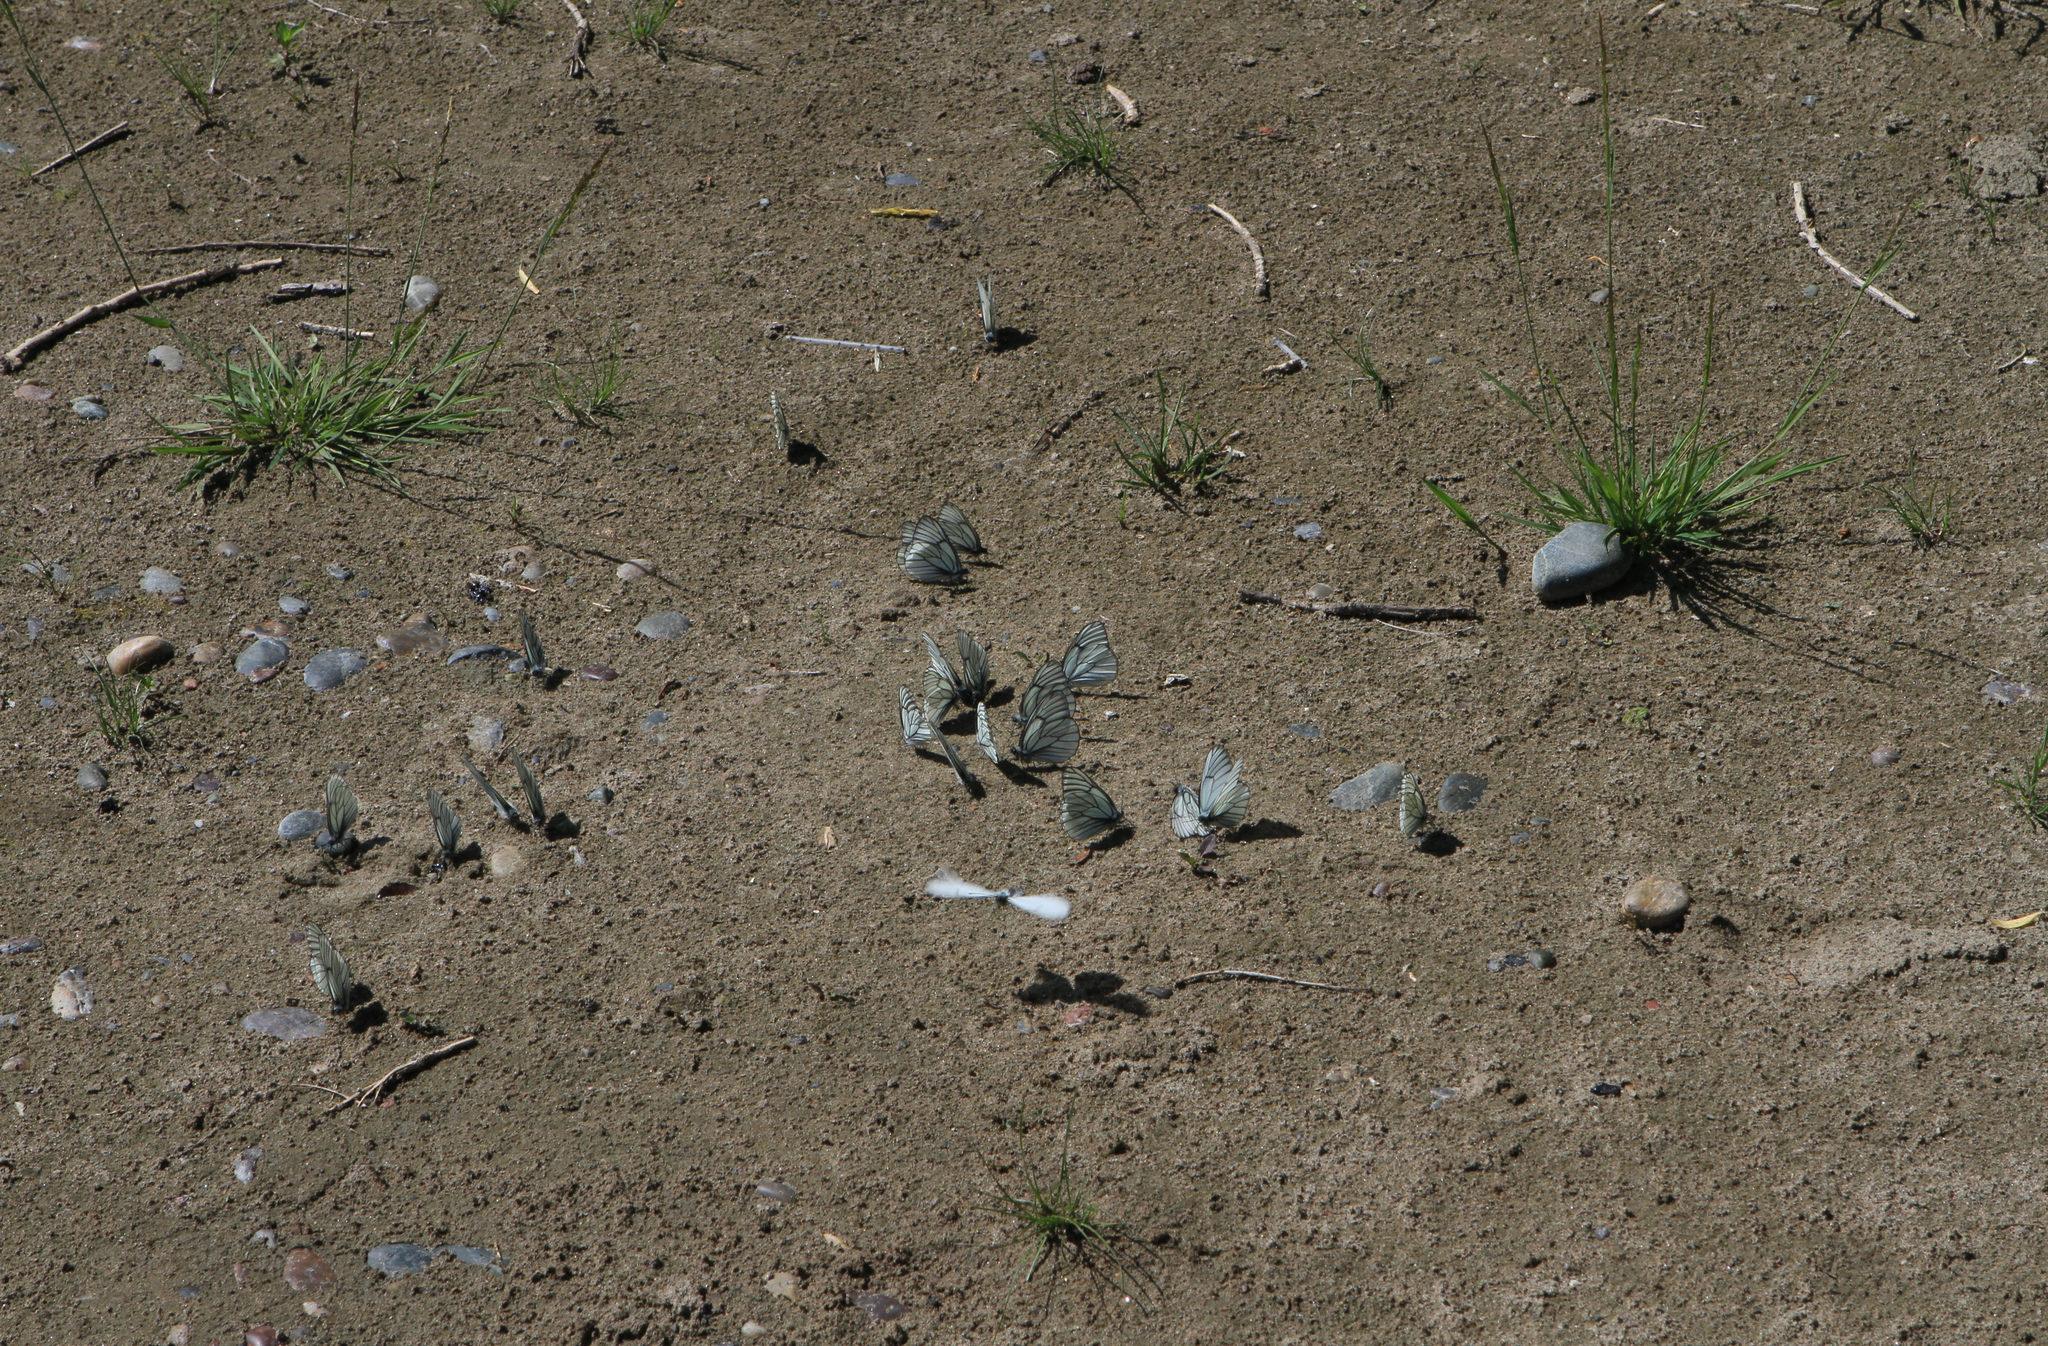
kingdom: Animalia
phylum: Arthropoda
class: Insecta
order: Lepidoptera
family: Pieridae
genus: Aporia
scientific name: Aporia crataegi
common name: Black-veined white
